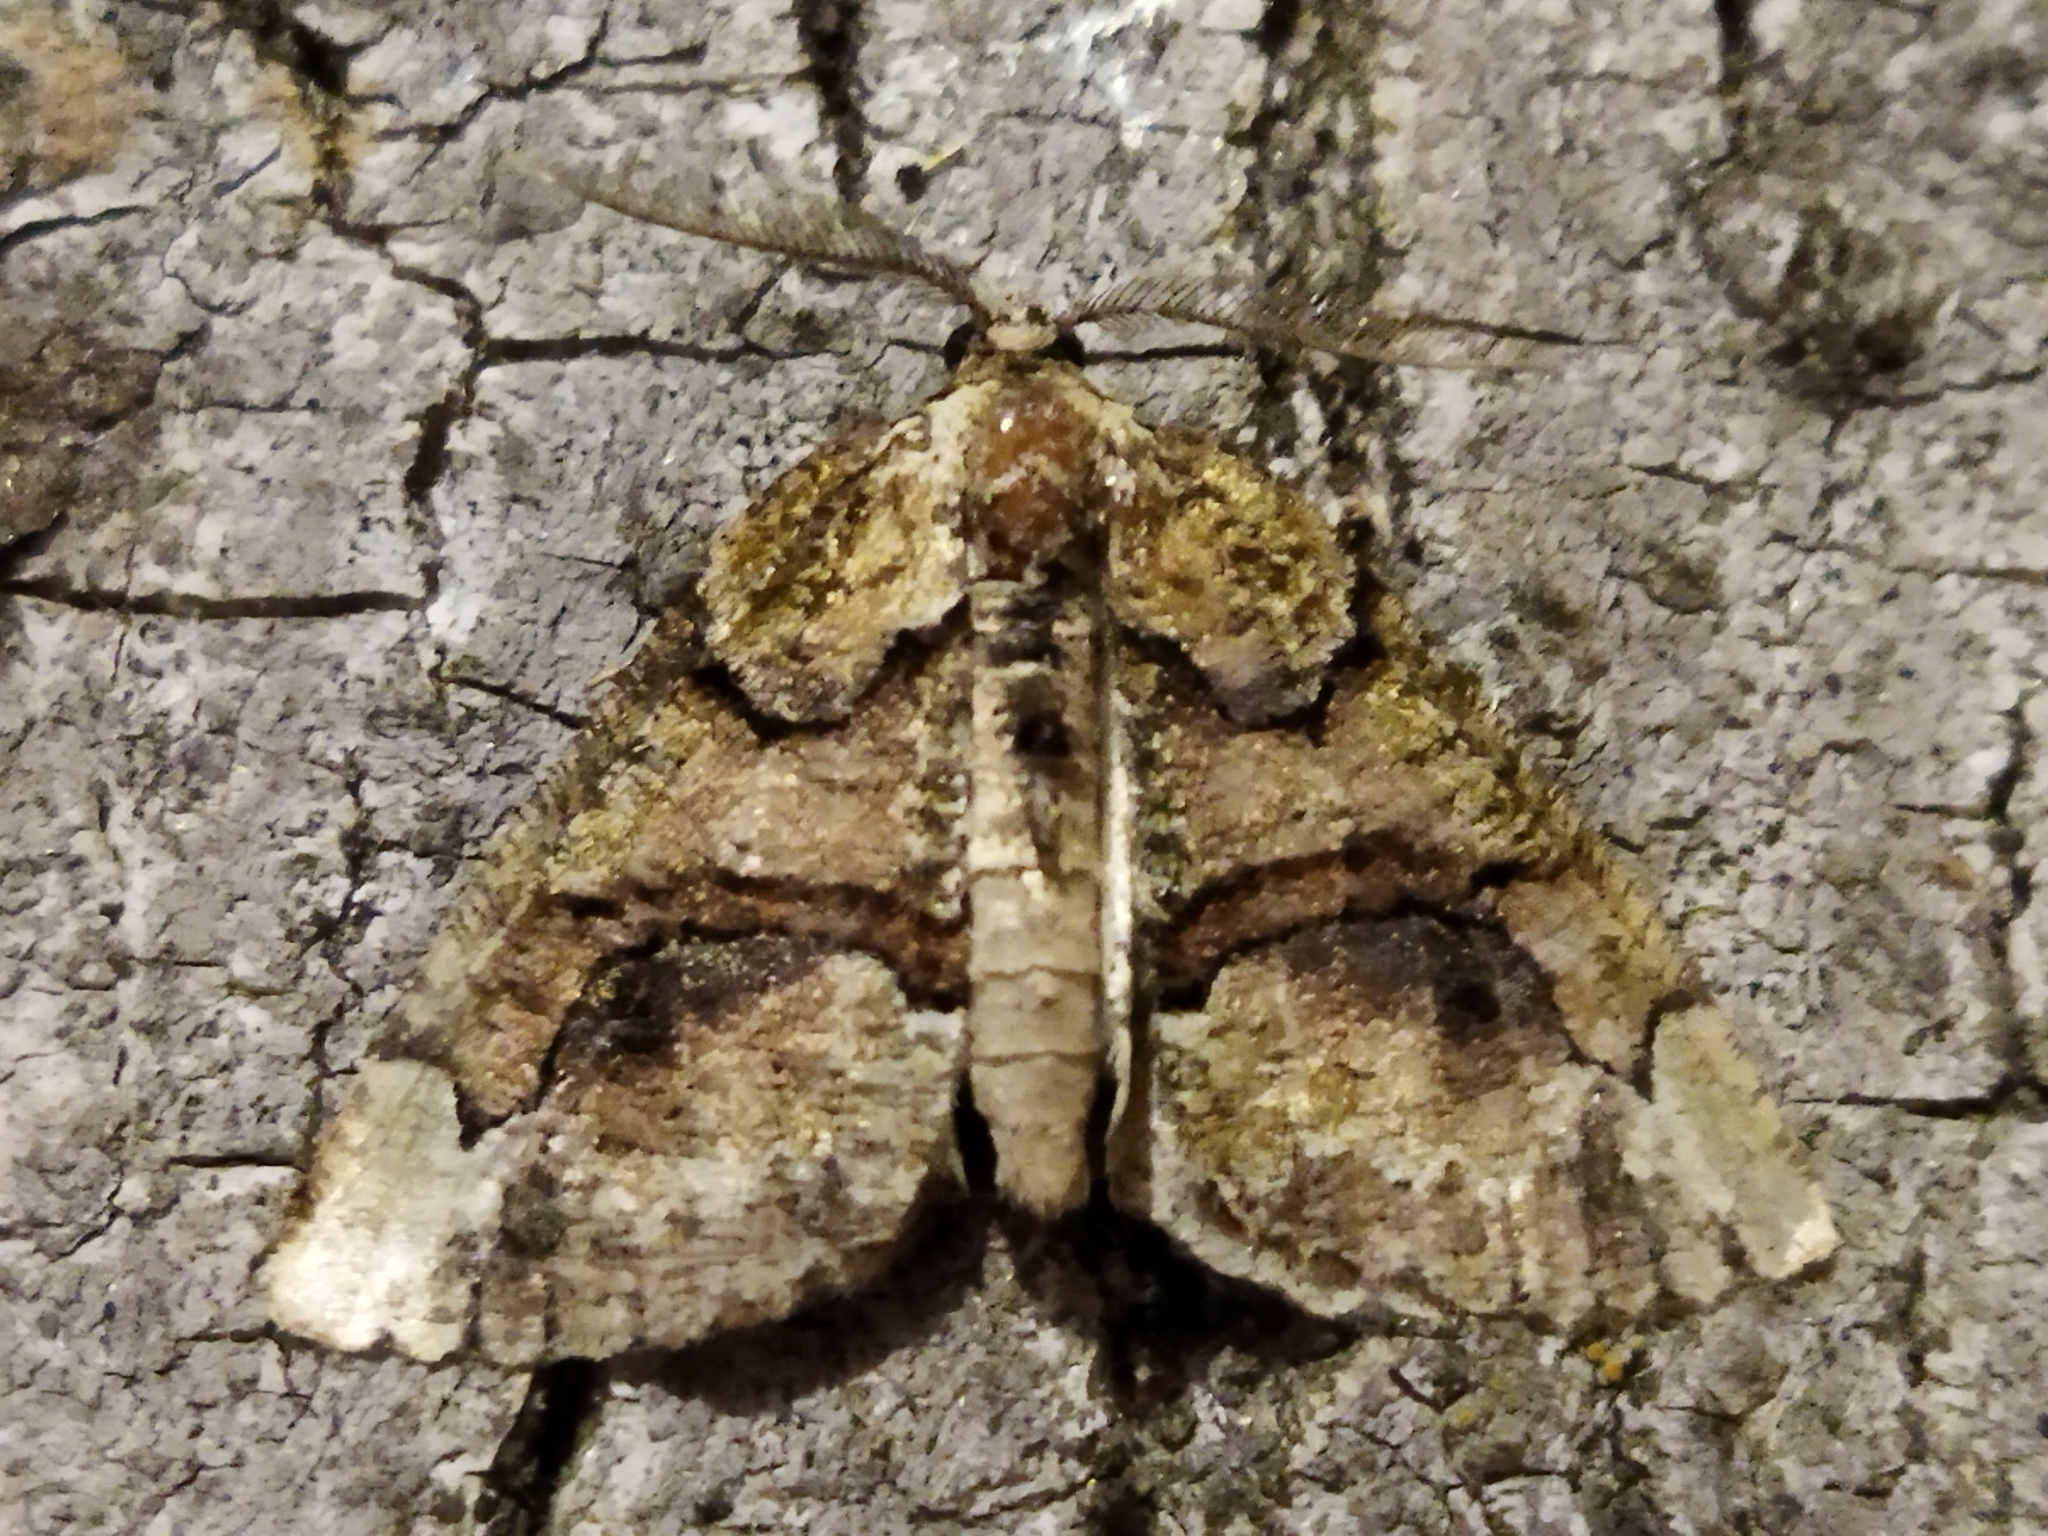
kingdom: Animalia
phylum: Arthropoda
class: Insecta
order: Lepidoptera
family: Geometridae
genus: Asovia
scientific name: Asovia maeoticaria
